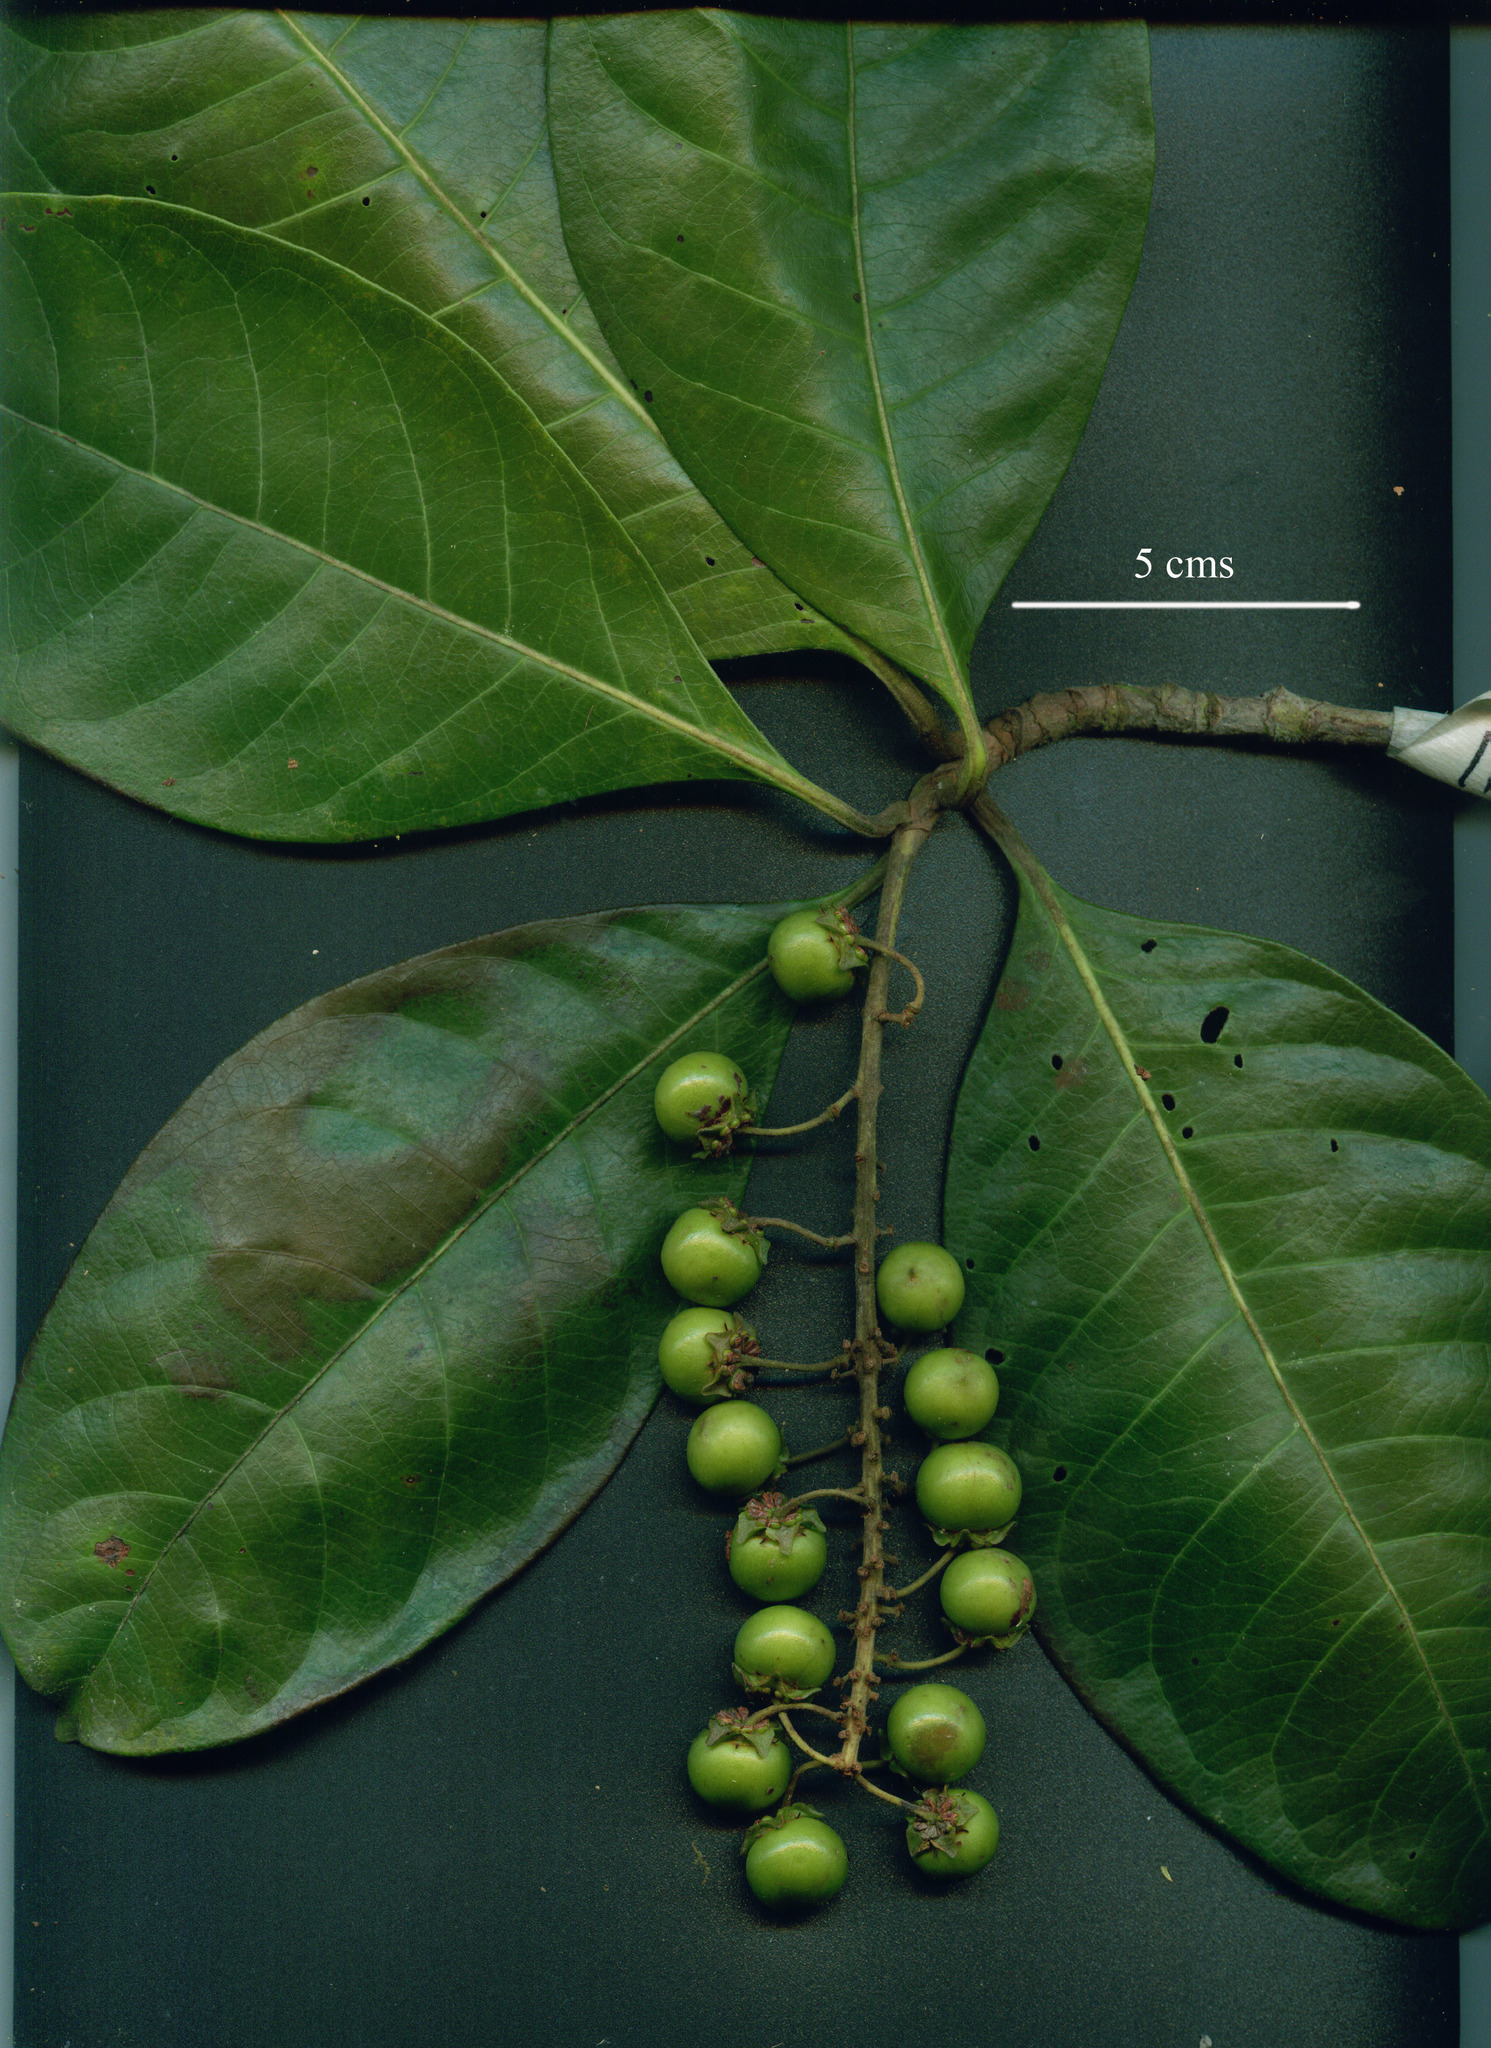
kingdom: Plantae
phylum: Tracheophyta
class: Magnoliopsida
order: Malpighiales
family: Malpighiaceae
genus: Byrsonima
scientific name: Byrsonima arthropoda
